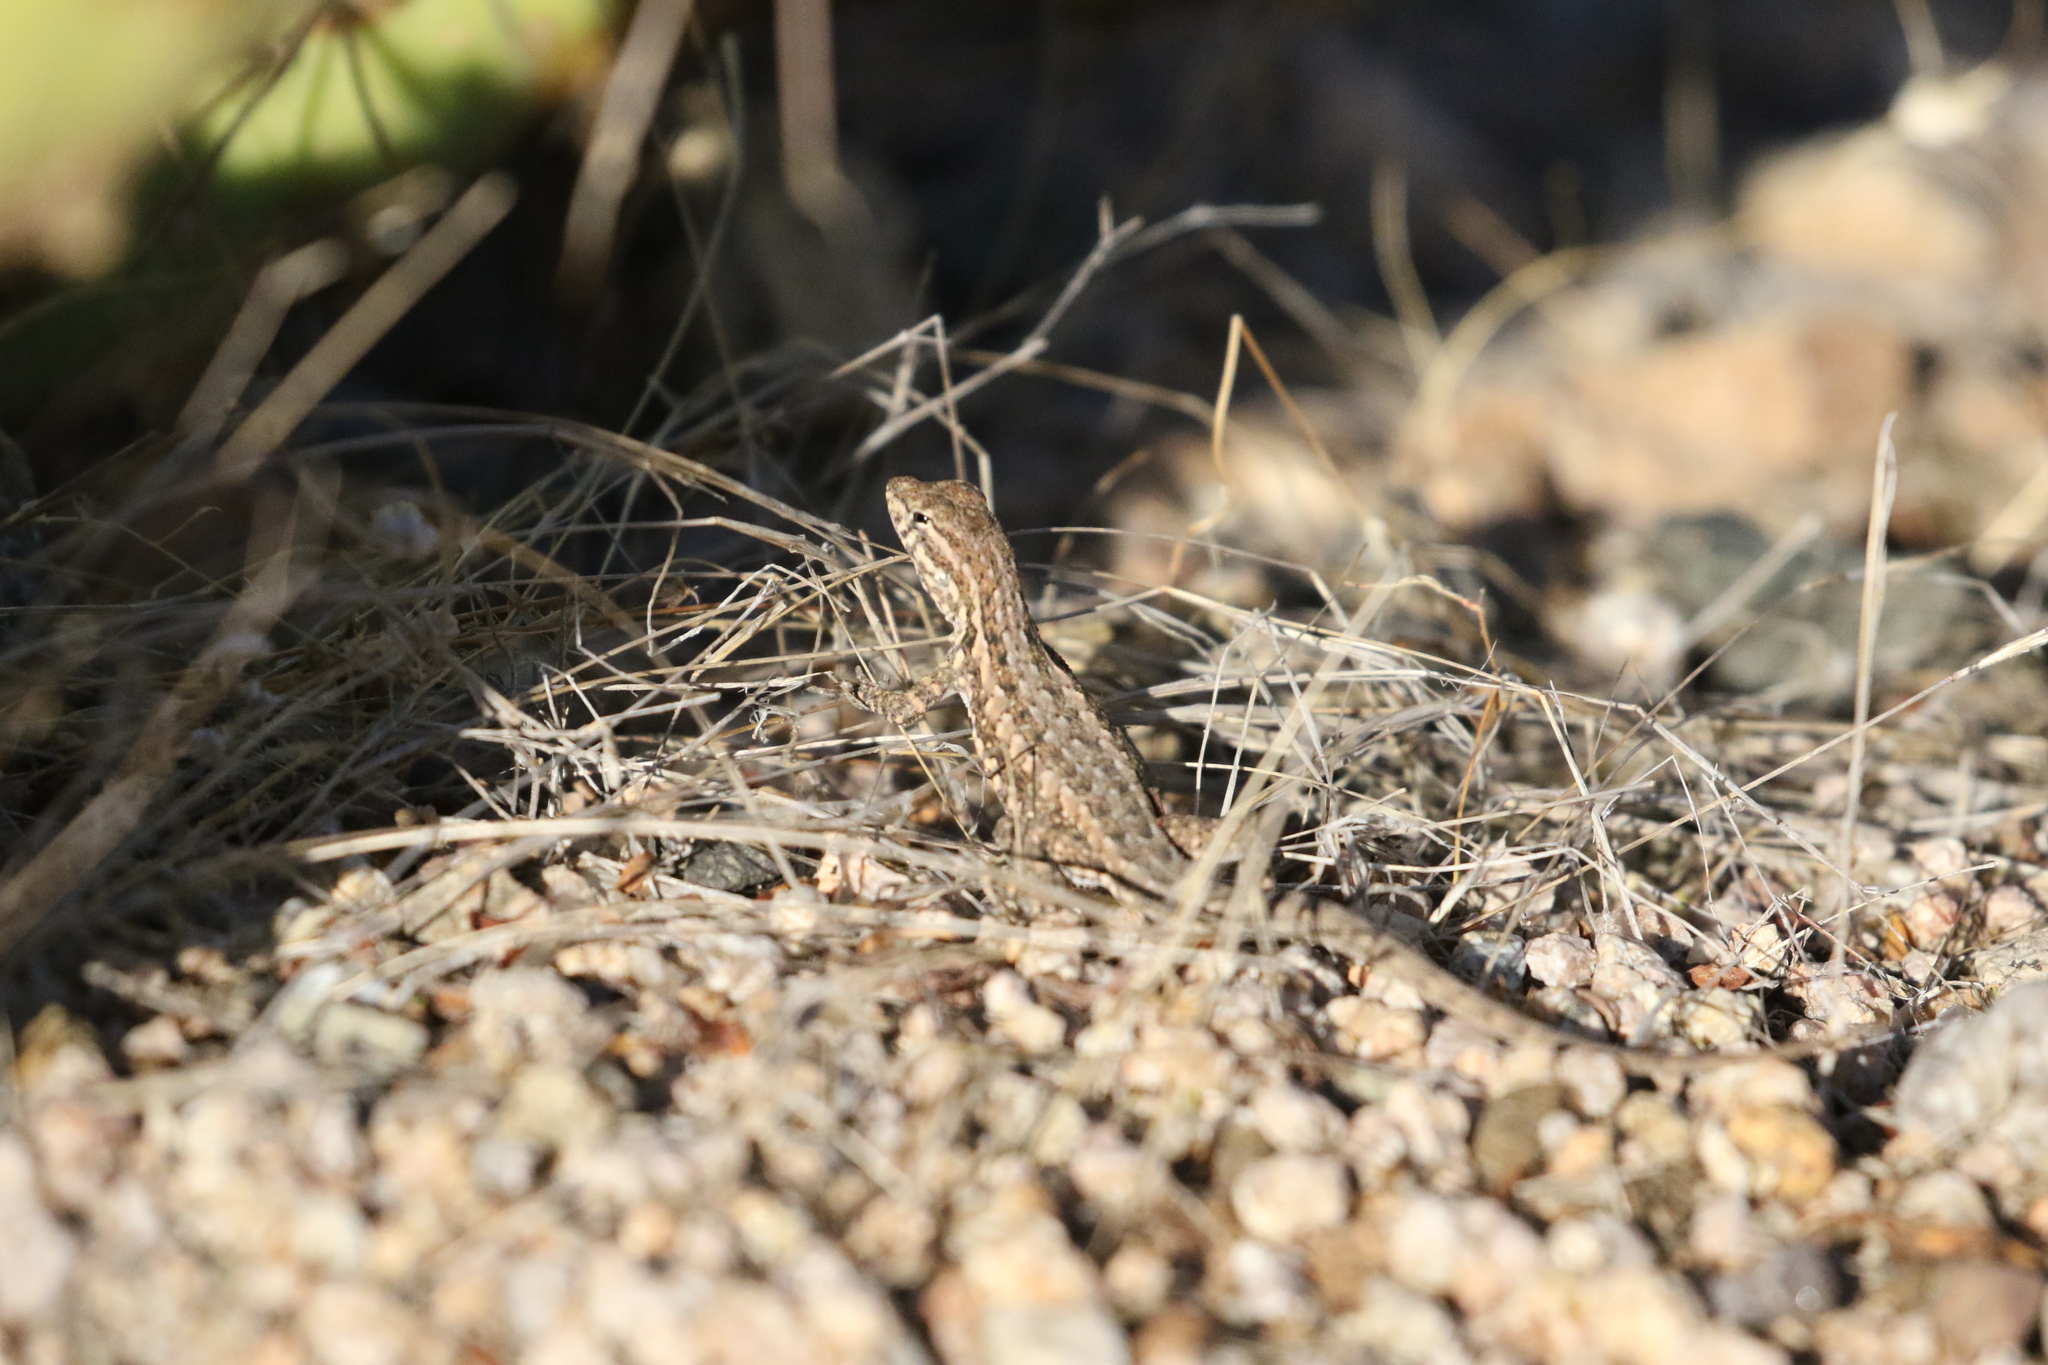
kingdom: Animalia
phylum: Chordata
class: Squamata
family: Phrynosomatidae
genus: Uta
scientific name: Uta stansburiana
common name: Side-blotched lizard
